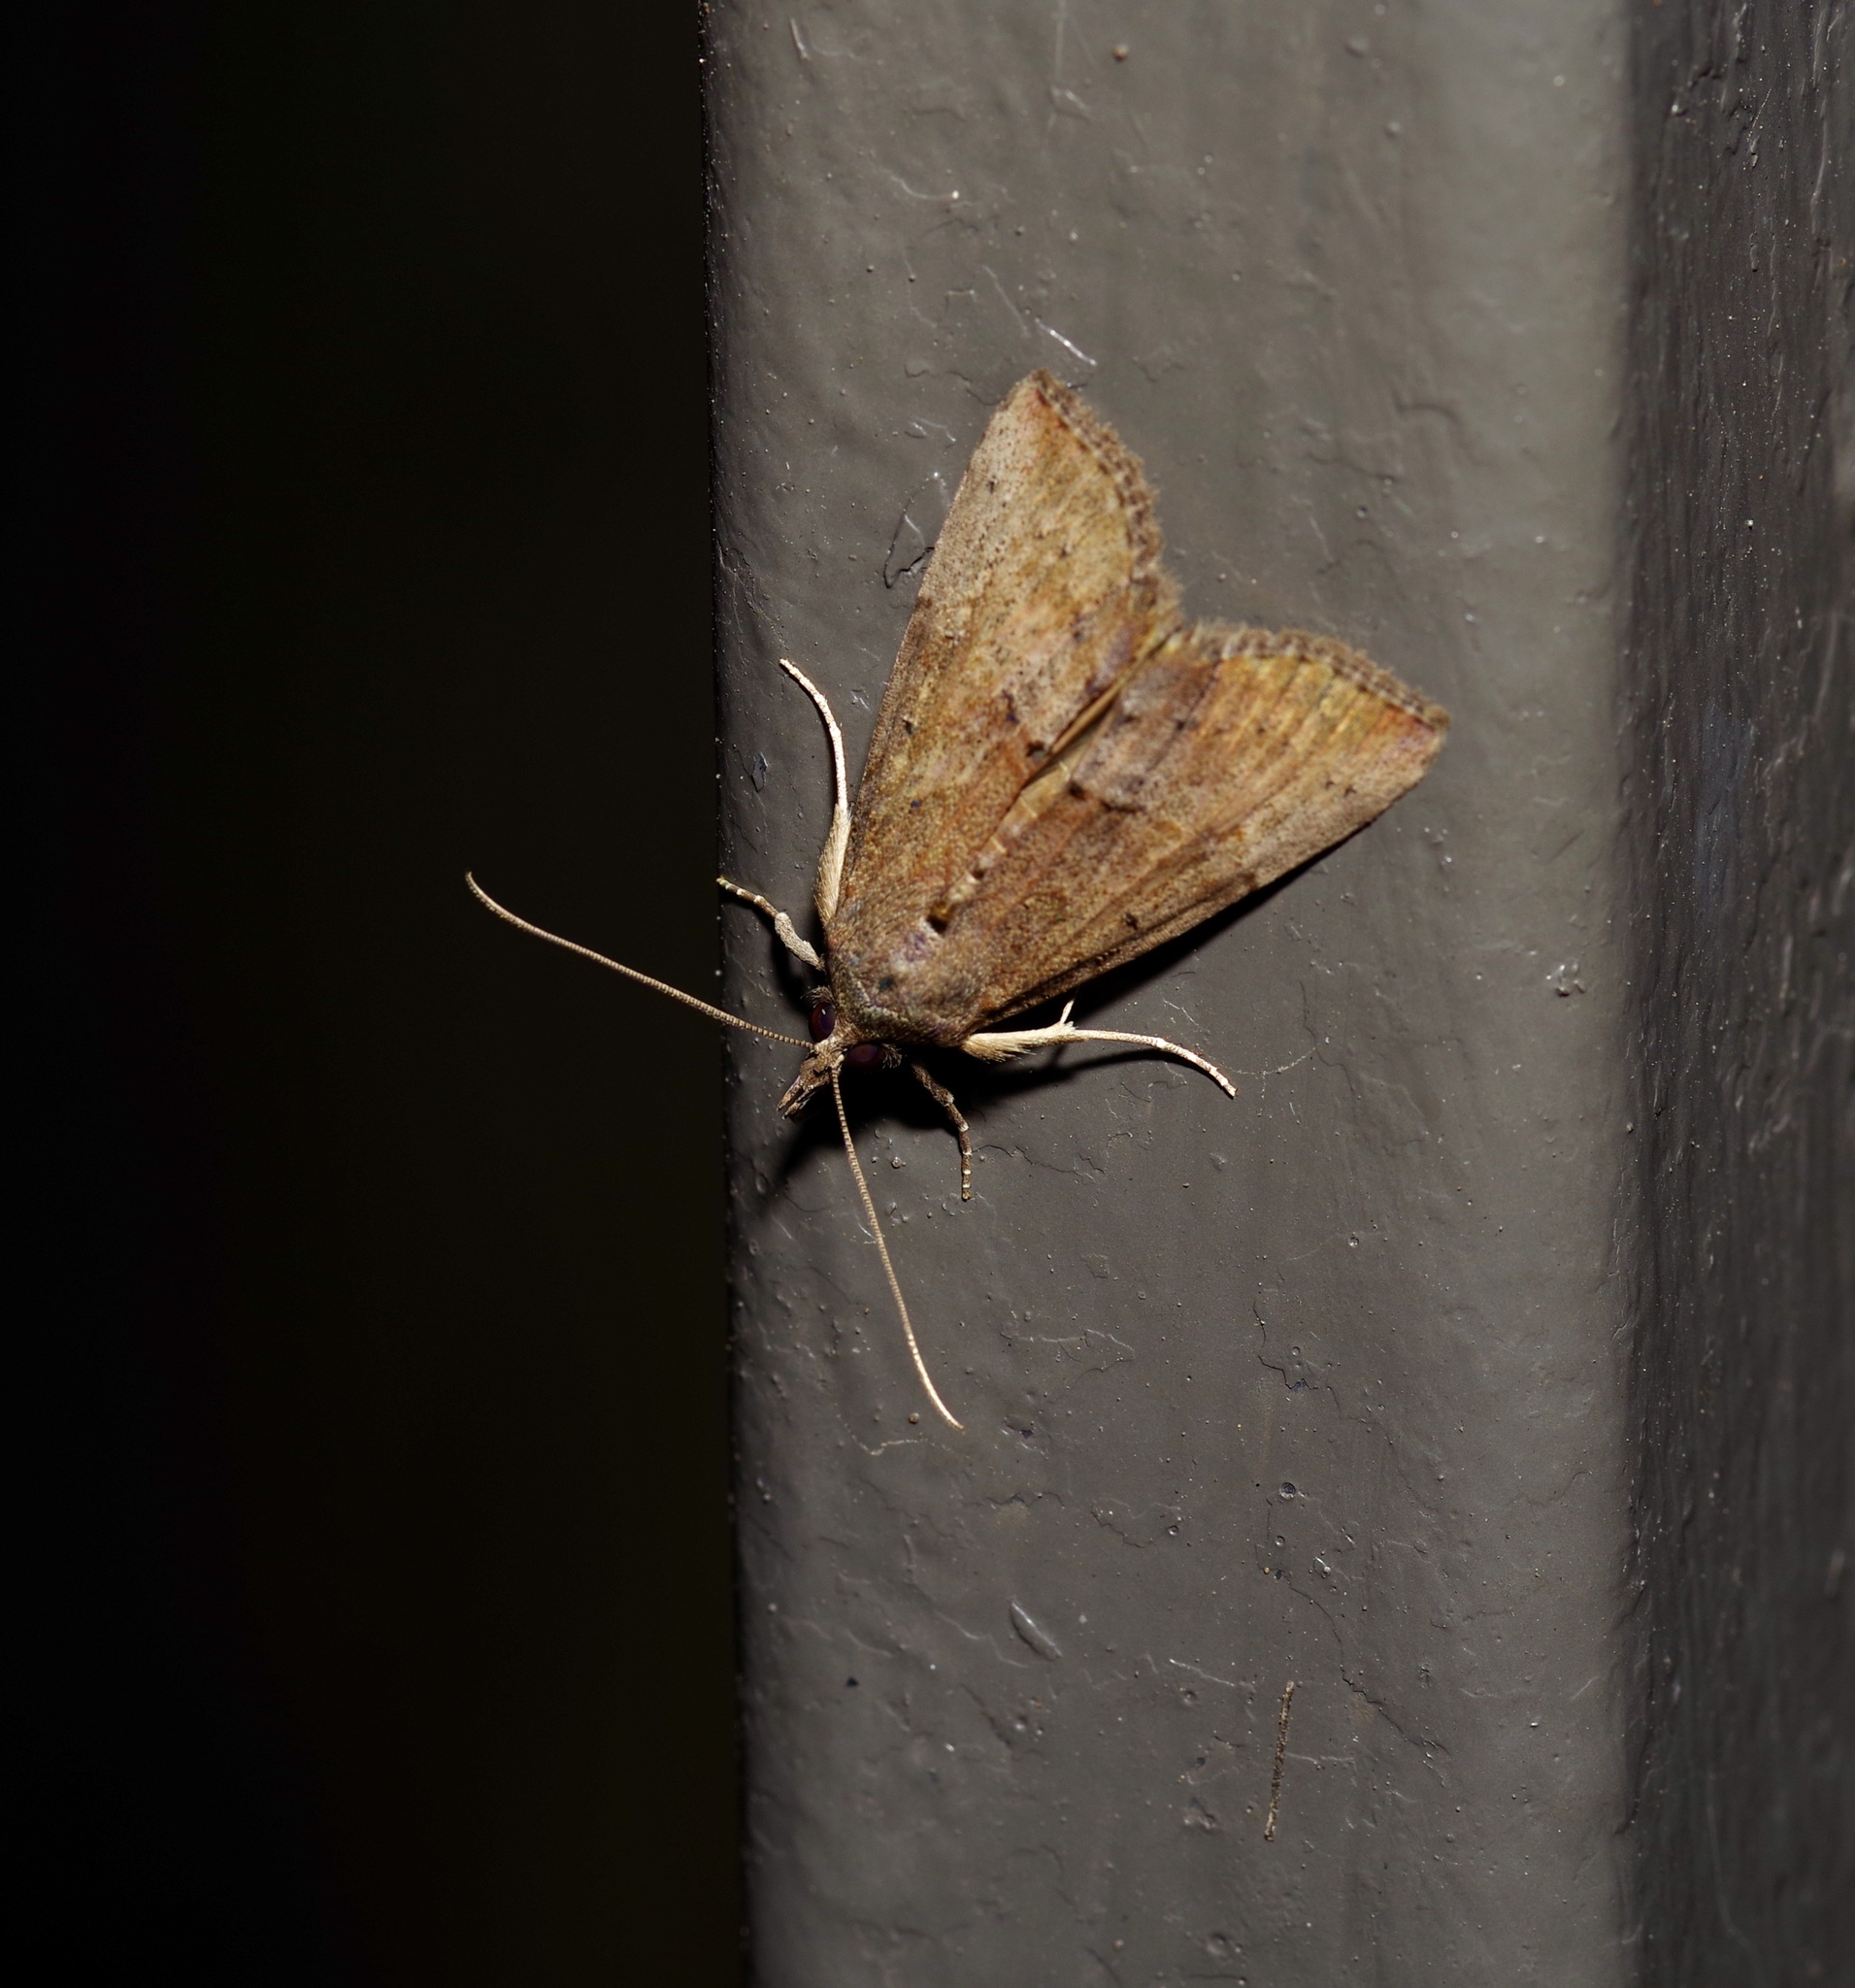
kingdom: Animalia
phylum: Arthropoda
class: Insecta
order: Lepidoptera
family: Erebidae
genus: Hypena
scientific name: Hypena scabra
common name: Green cloverworm
